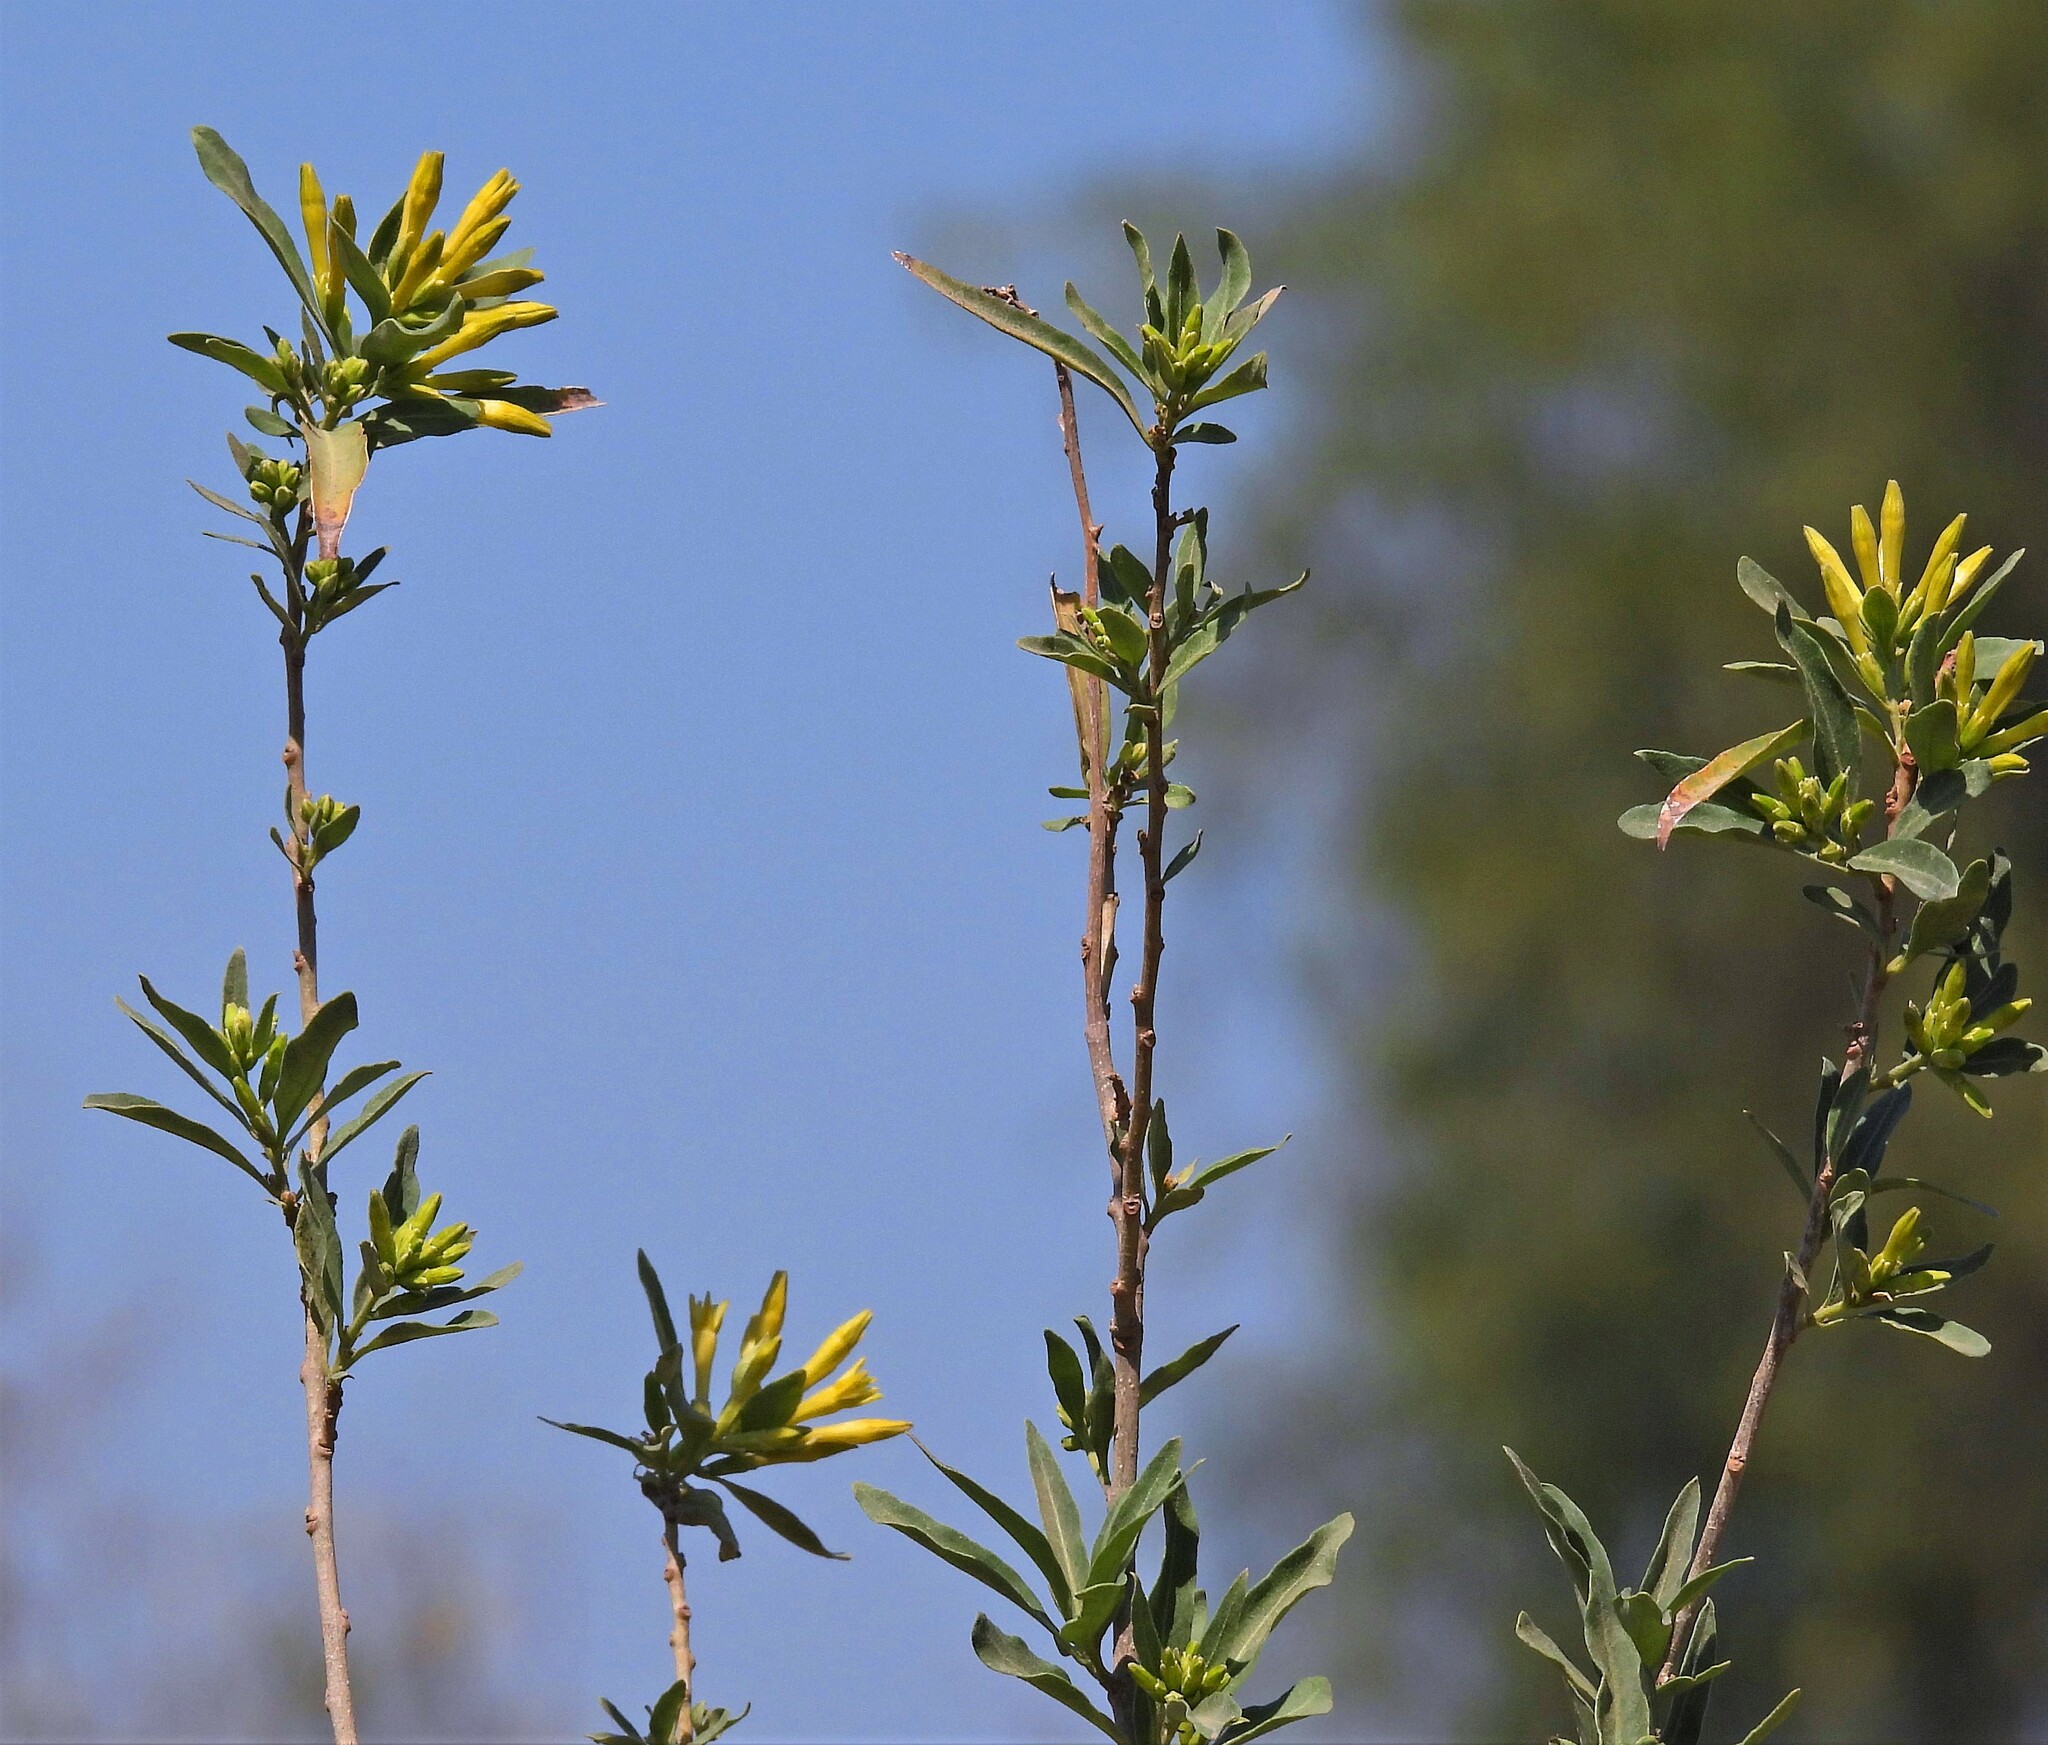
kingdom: Plantae
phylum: Tracheophyta
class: Magnoliopsida
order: Solanales
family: Solanaceae
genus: Cestrum
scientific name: Cestrum parqui
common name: Chilean cestrum
